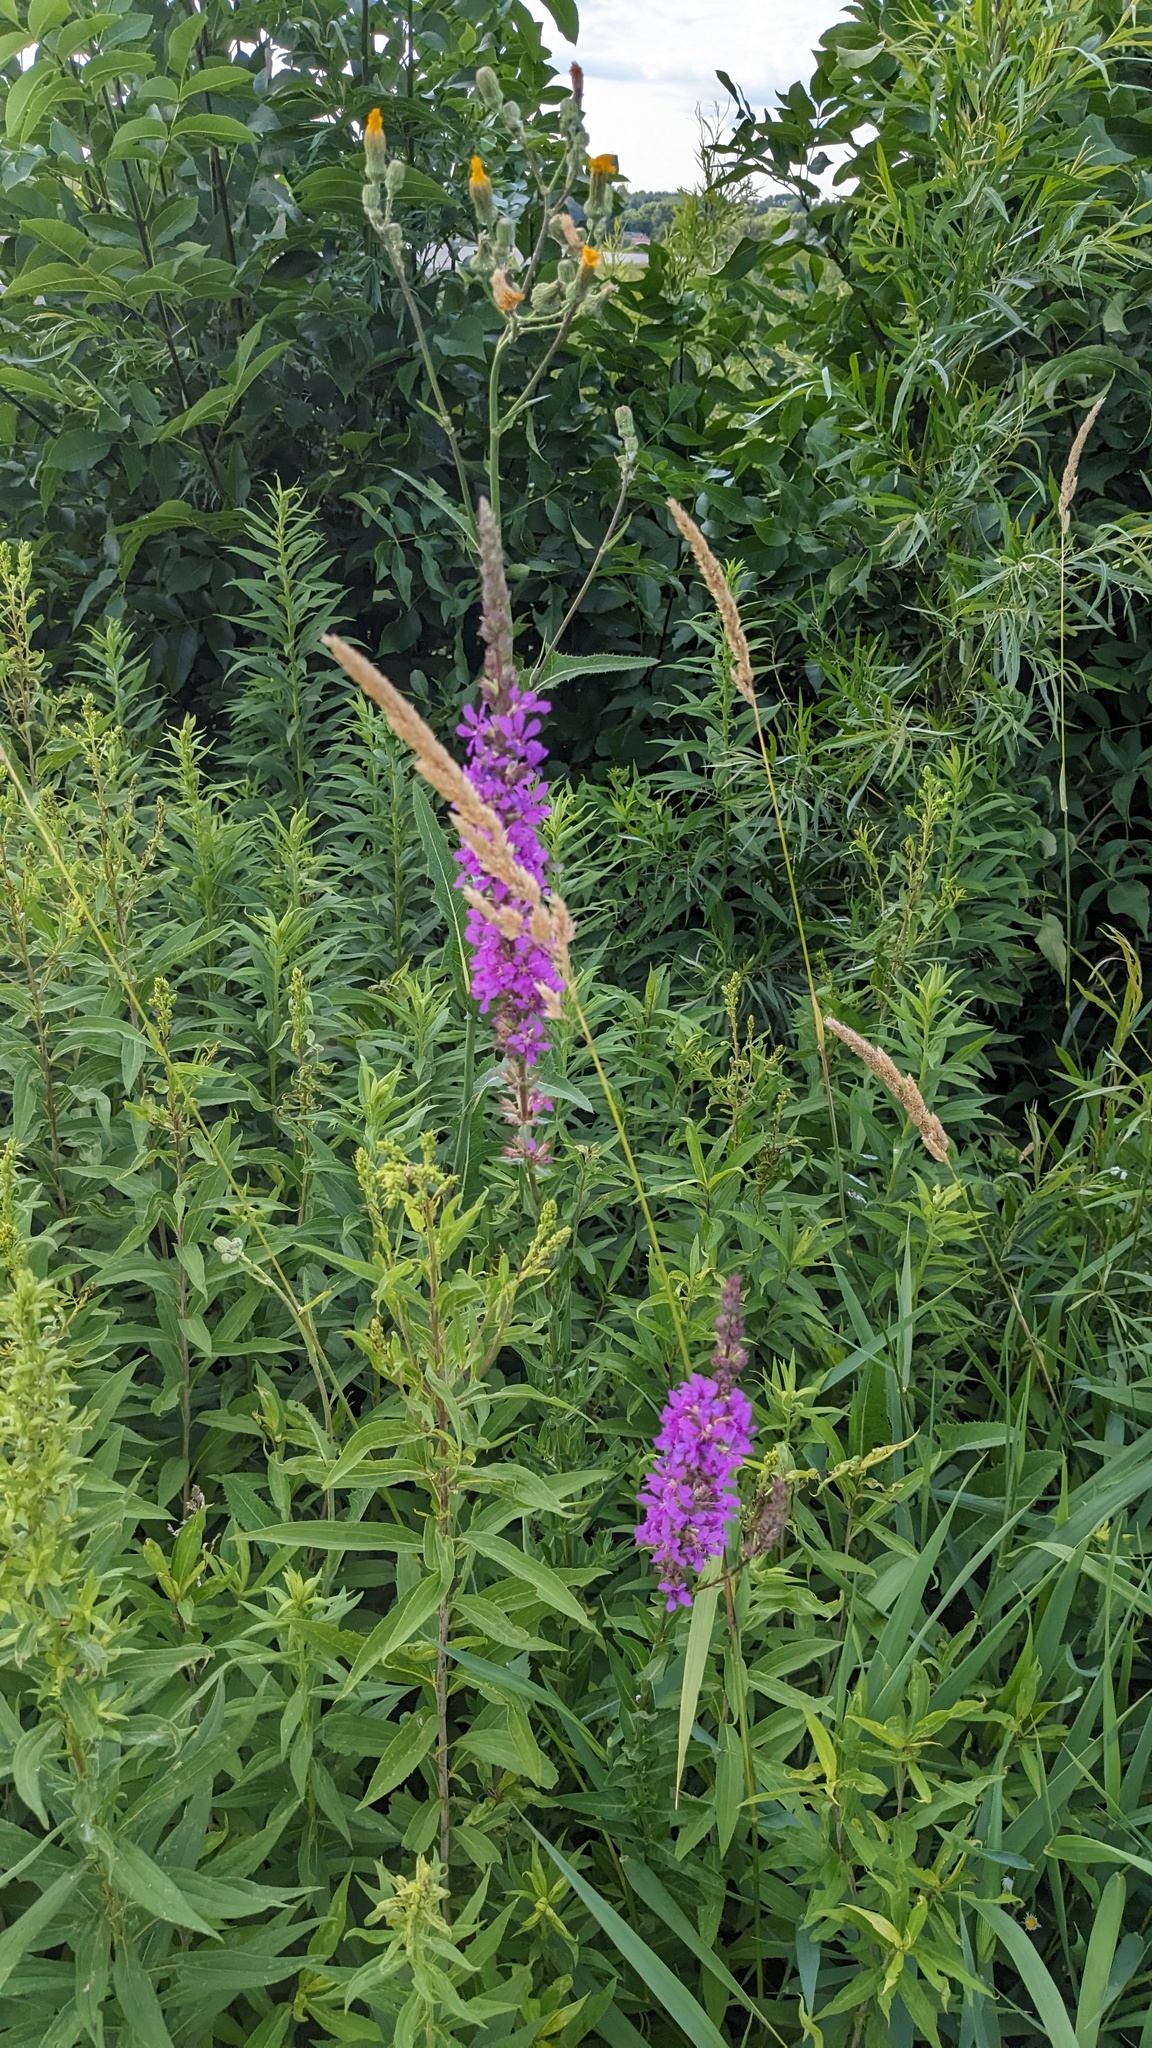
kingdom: Plantae
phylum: Tracheophyta
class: Magnoliopsida
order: Myrtales
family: Lythraceae
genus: Lythrum
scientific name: Lythrum salicaria
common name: Purple loosestrife
